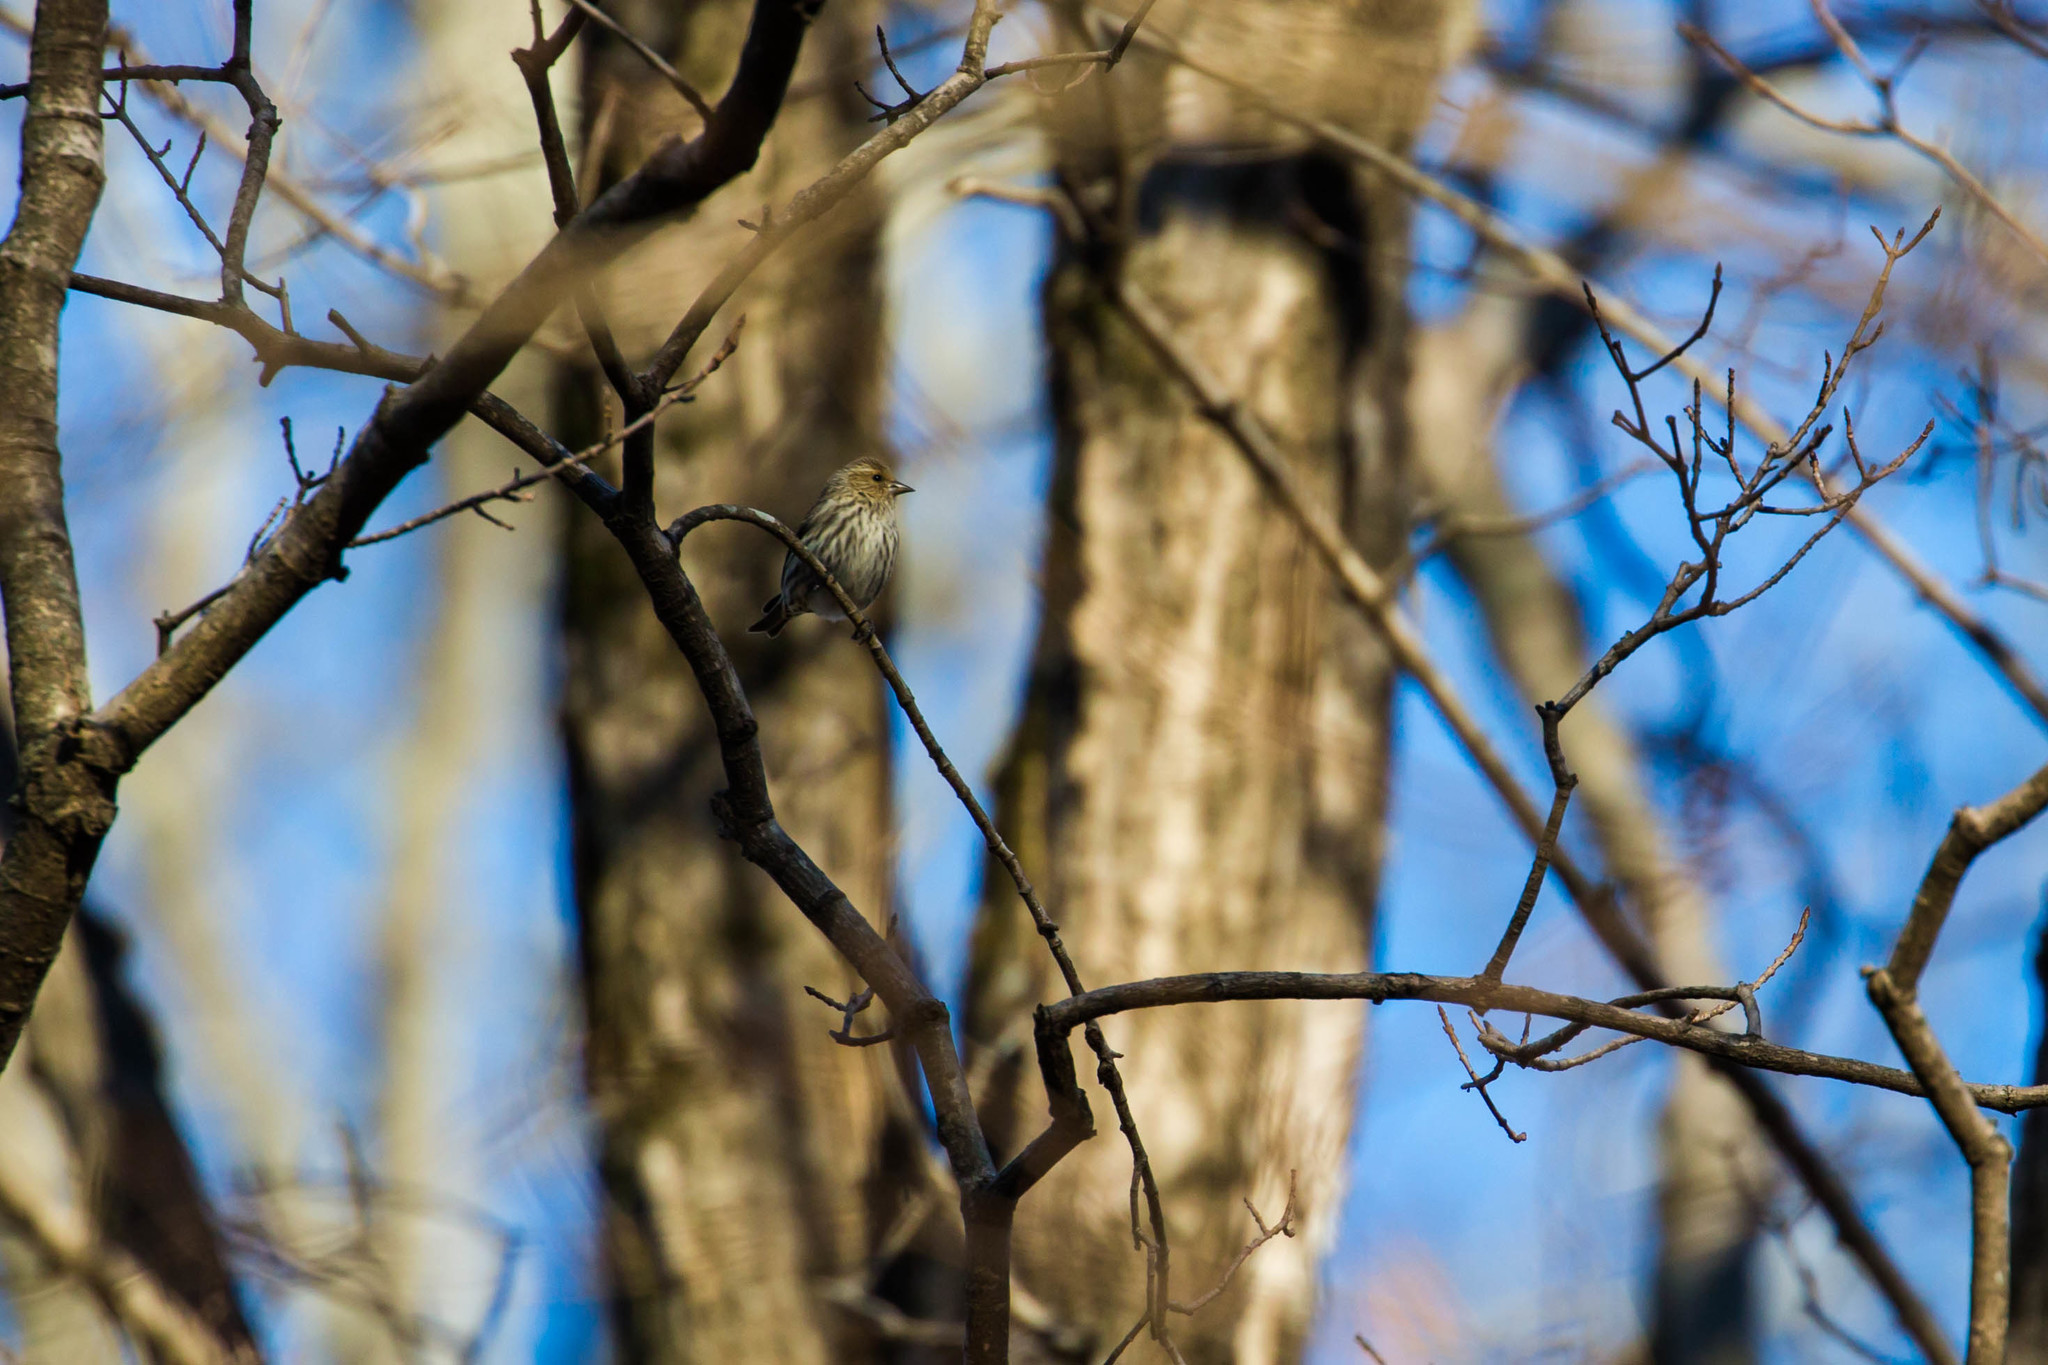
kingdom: Animalia
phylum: Chordata
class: Aves
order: Passeriformes
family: Fringillidae
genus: Spinus
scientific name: Spinus pinus
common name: Pine siskin
